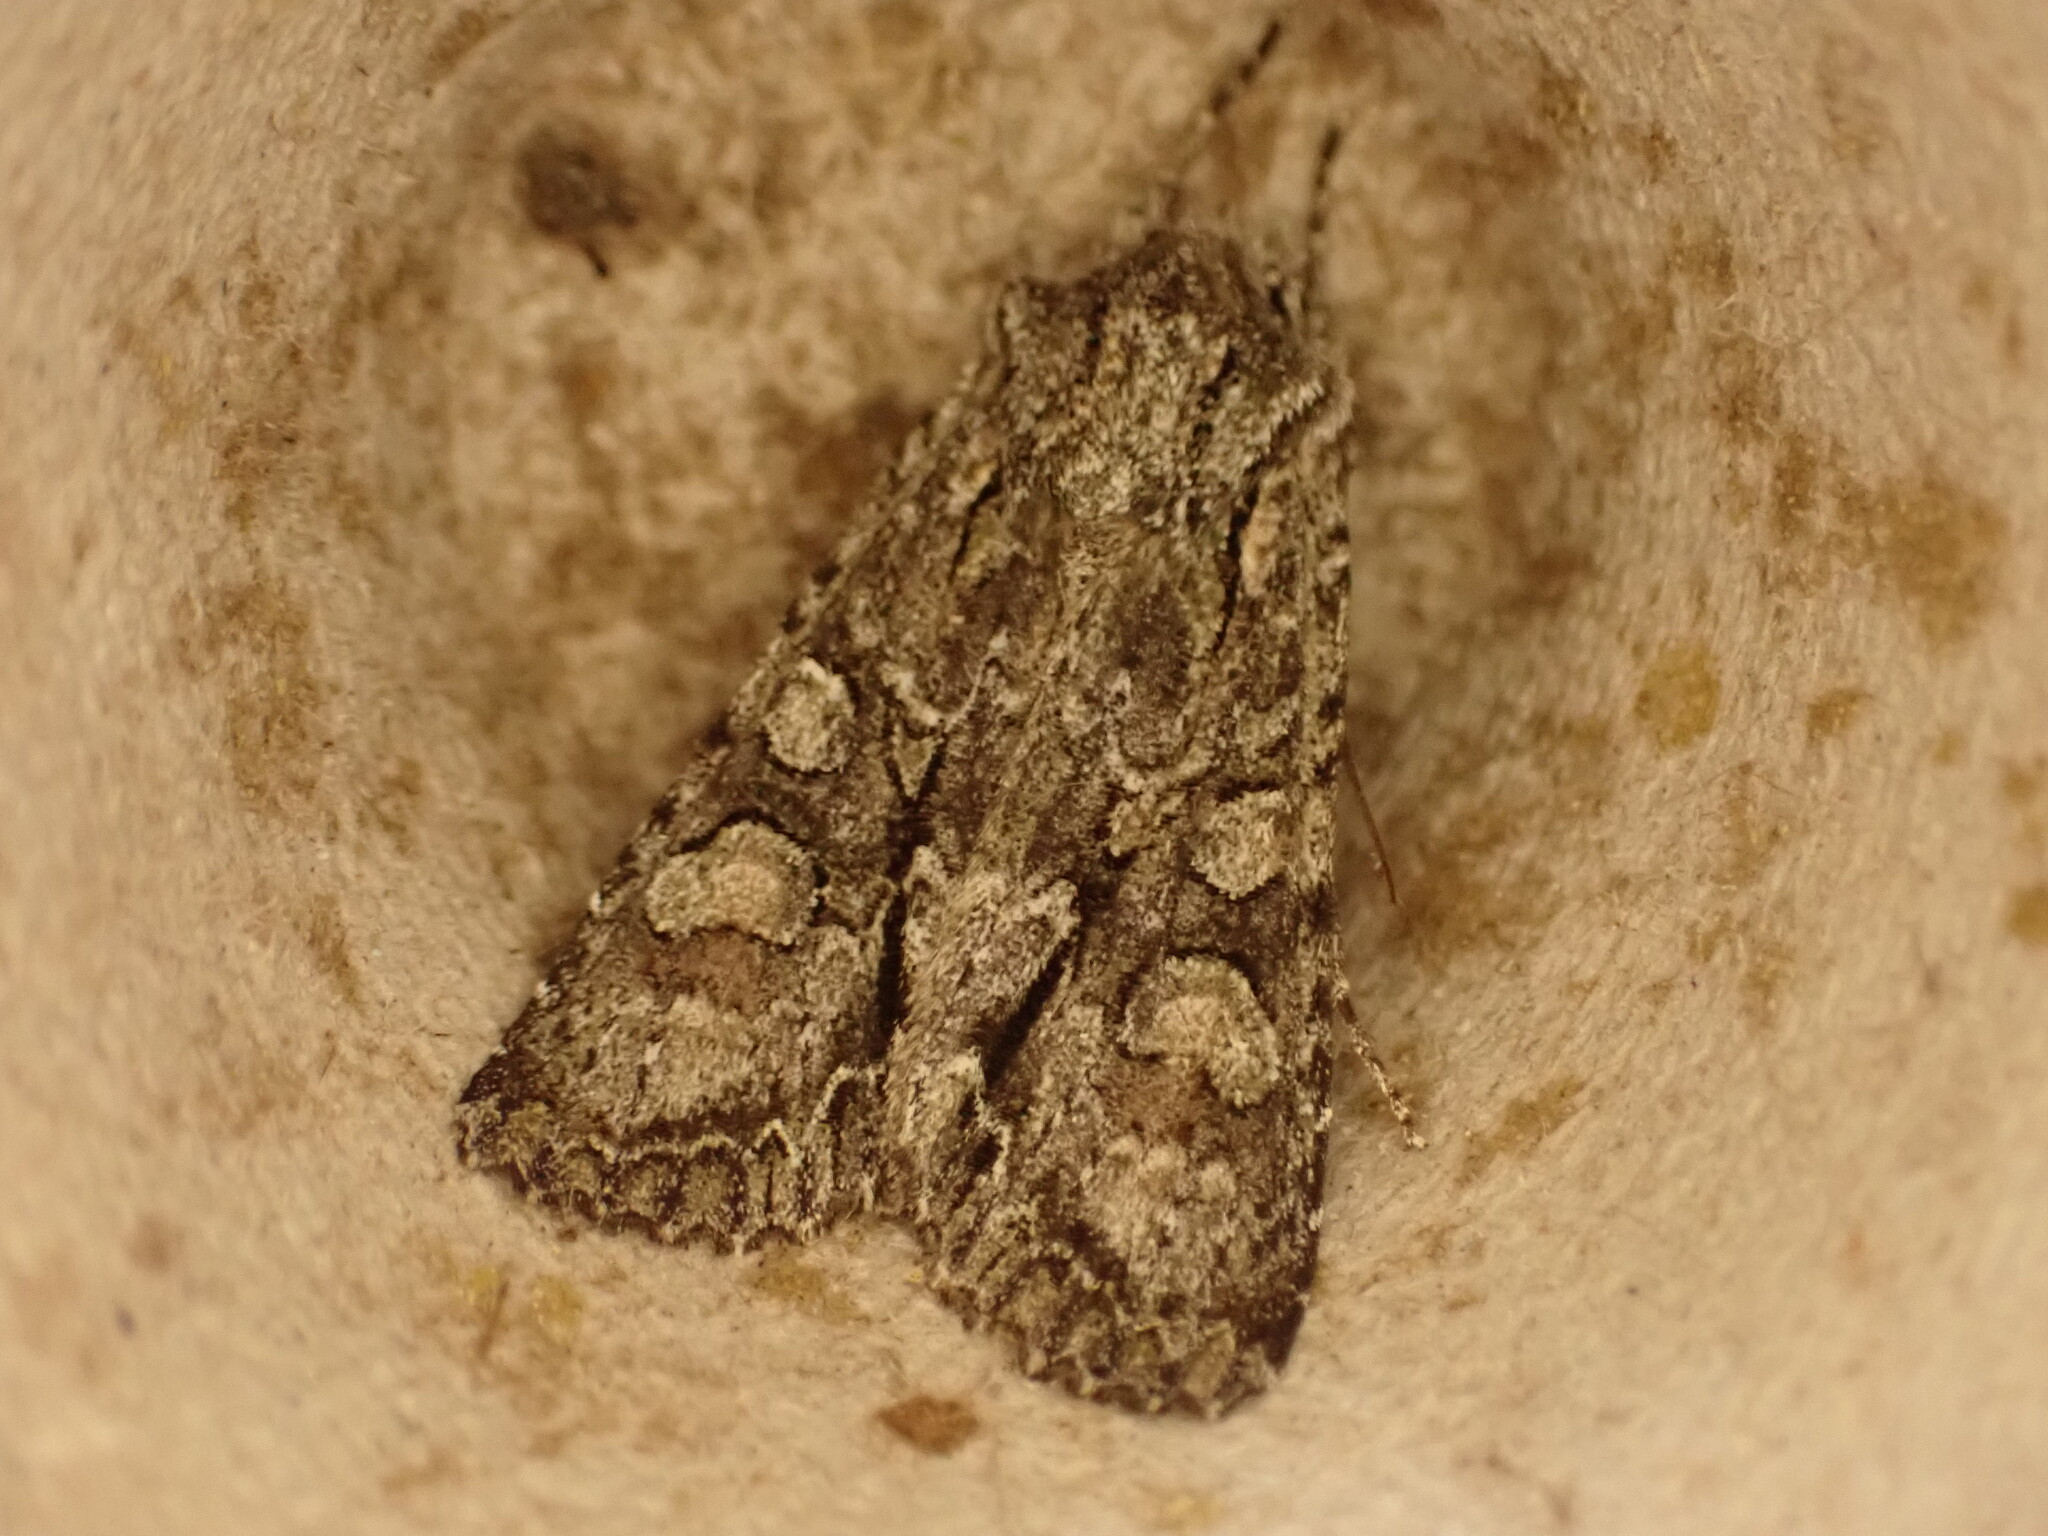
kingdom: Animalia
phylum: Arthropoda
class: Insecta
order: Lepidoptera
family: Noctuidae
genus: Ichneutica
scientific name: Ichneutica mutans
